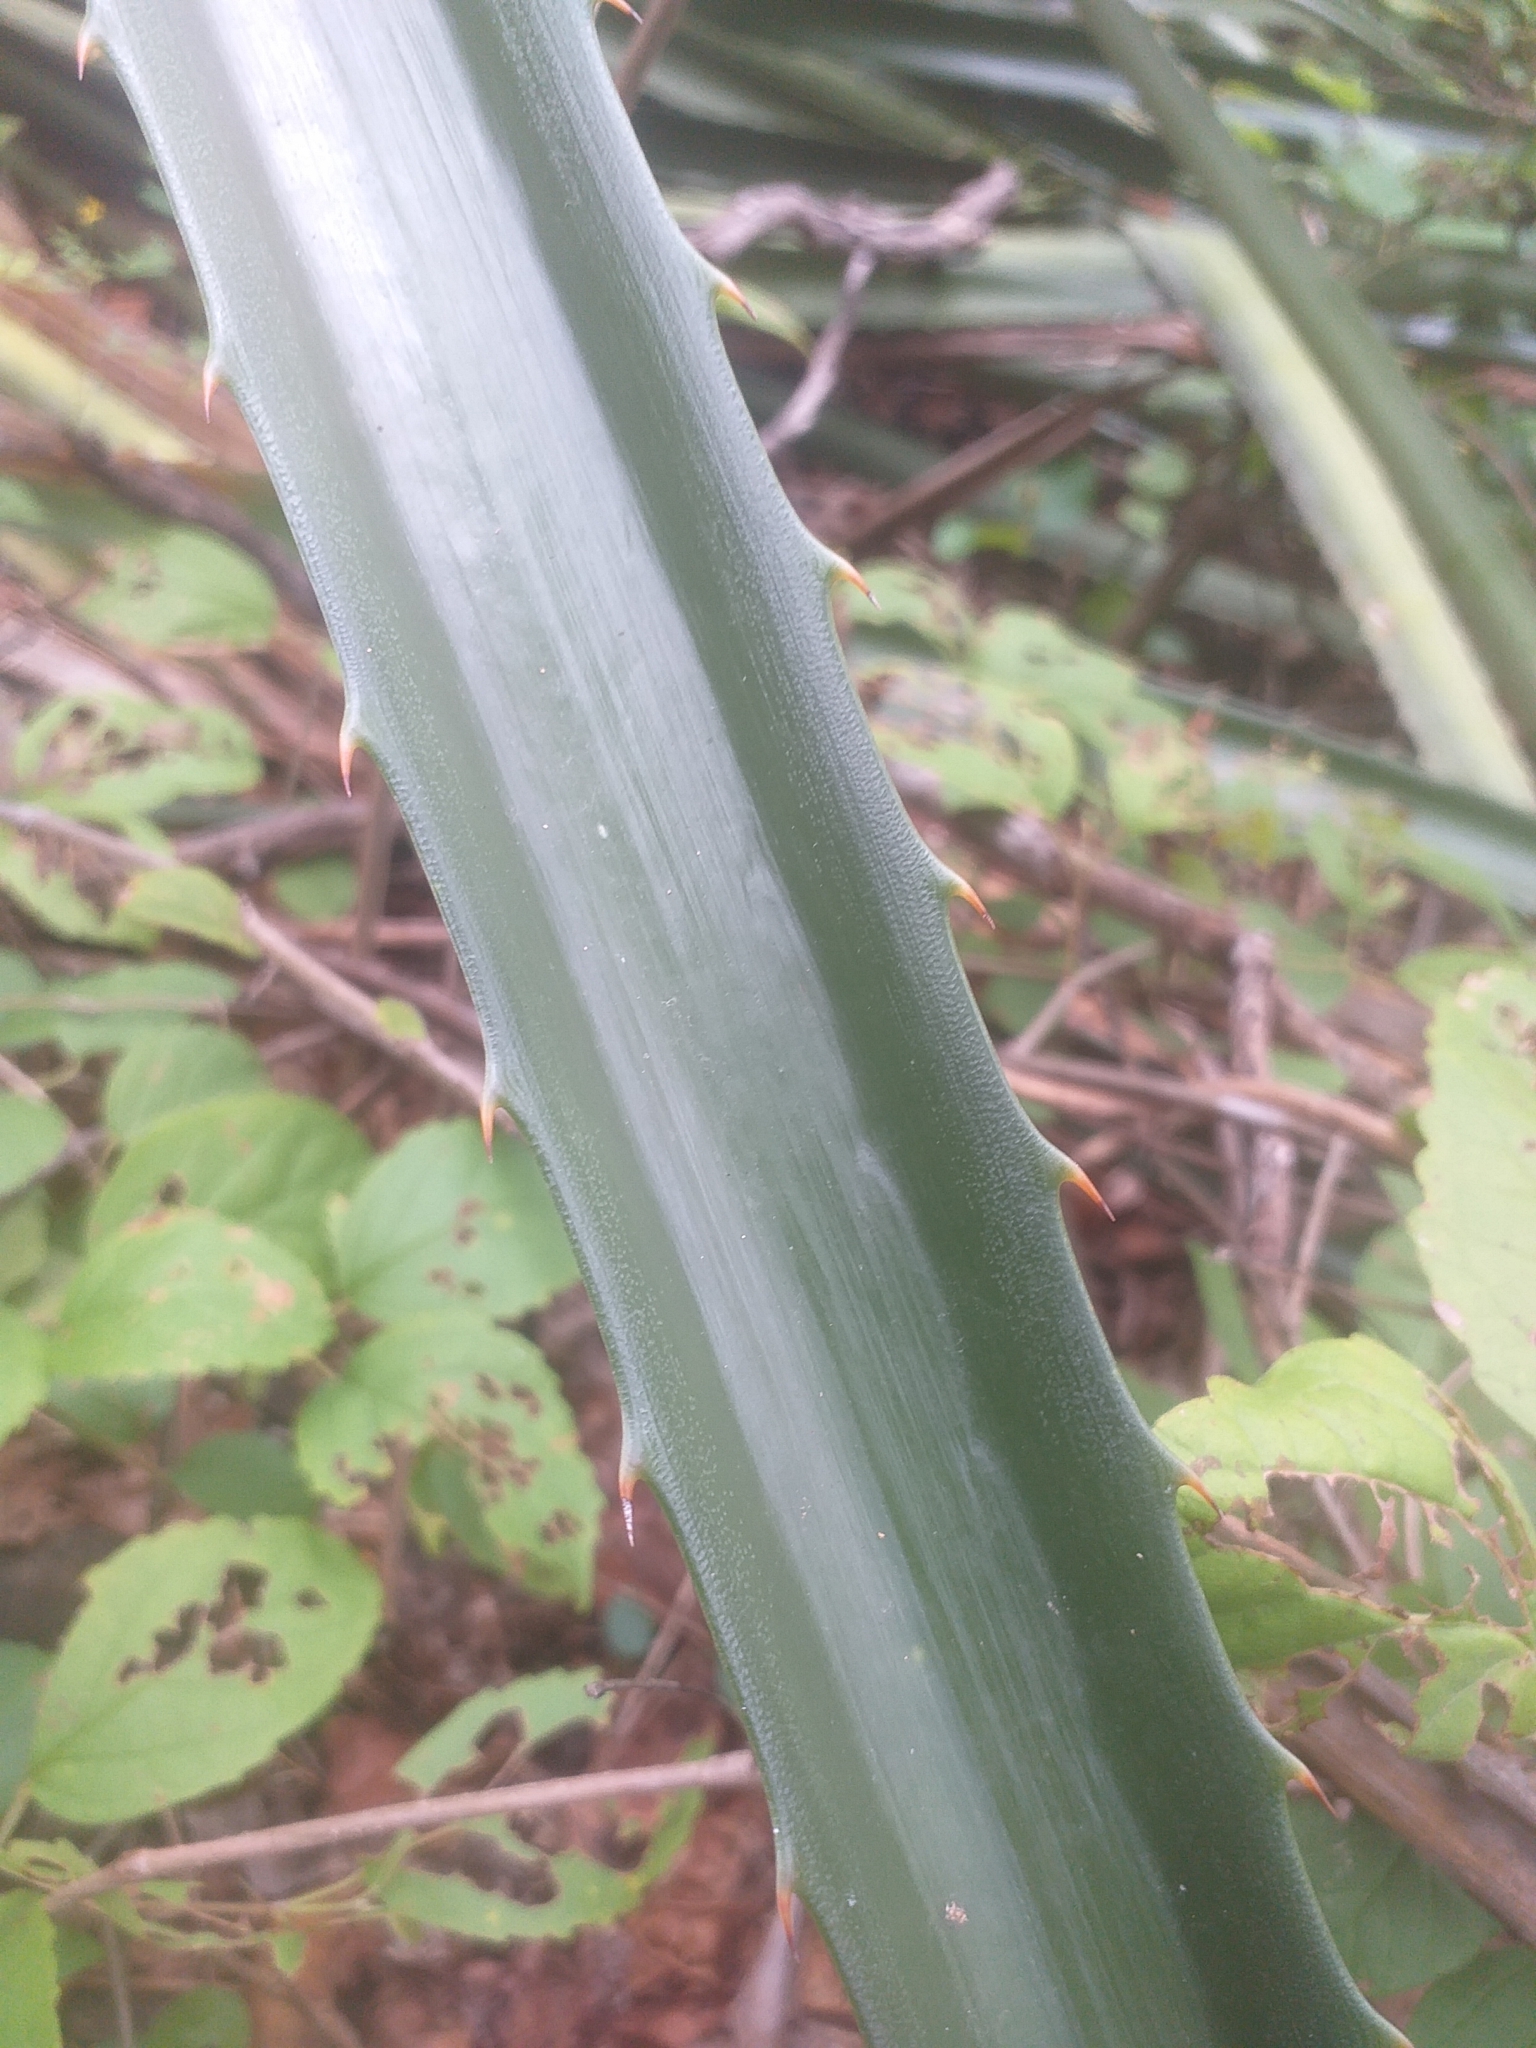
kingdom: Plantae
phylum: Tracheophyta
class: Liliopsida
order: Poales
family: Bromeliaceae
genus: Bromelia
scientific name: Bromelia grandiflora
